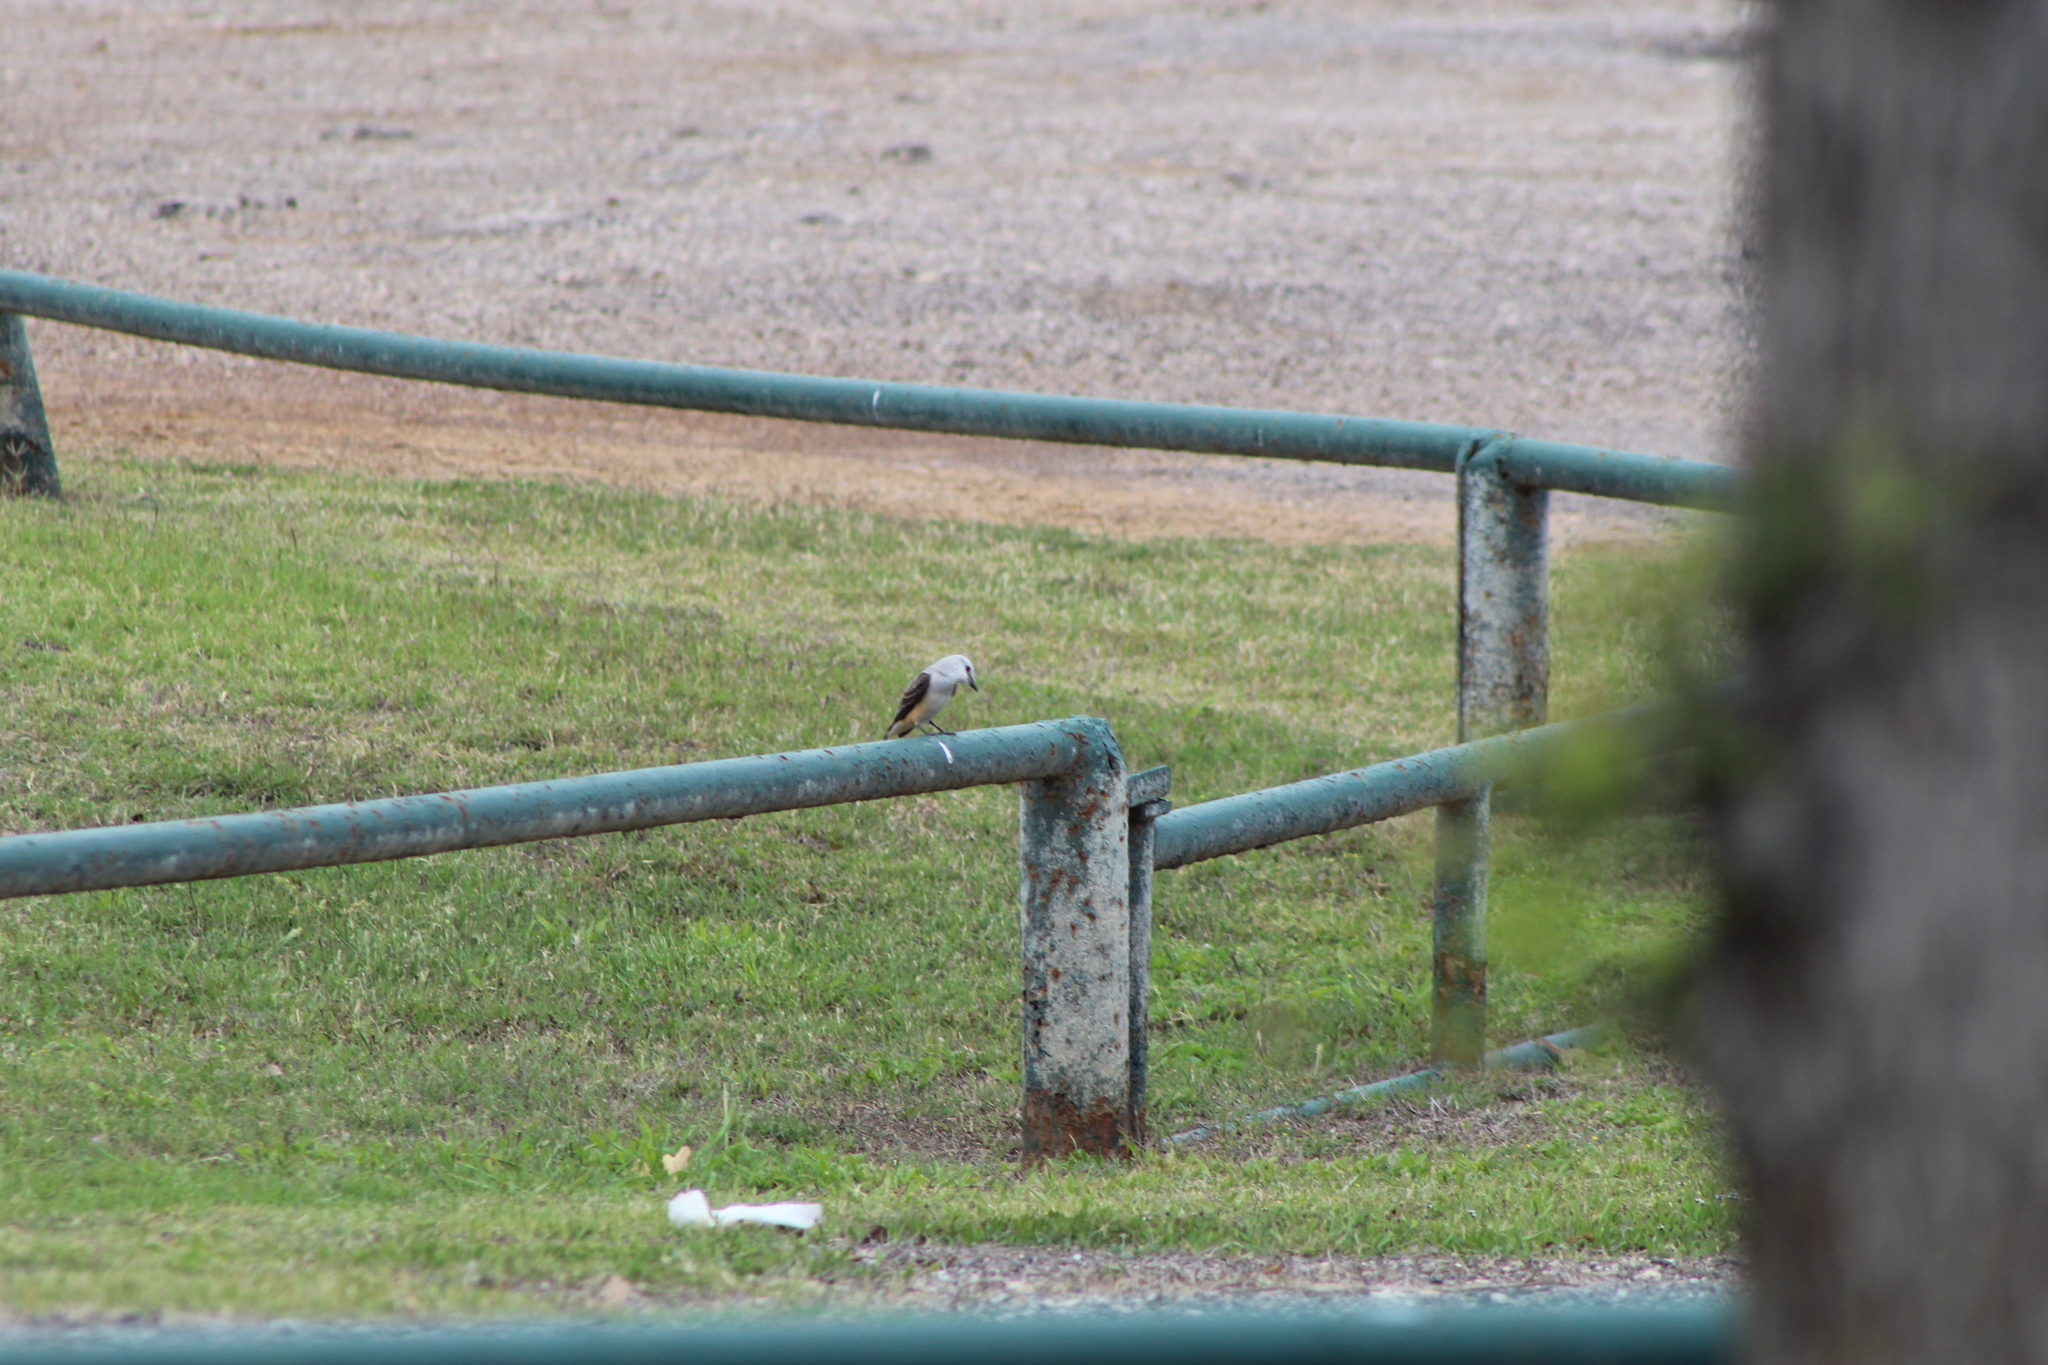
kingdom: Animalia
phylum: Chordata
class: Aves
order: Passeriformes
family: Tyrannidae
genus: Tyrannus
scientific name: Tyrannus forficatus
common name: Scissor-tailed flycatcher
